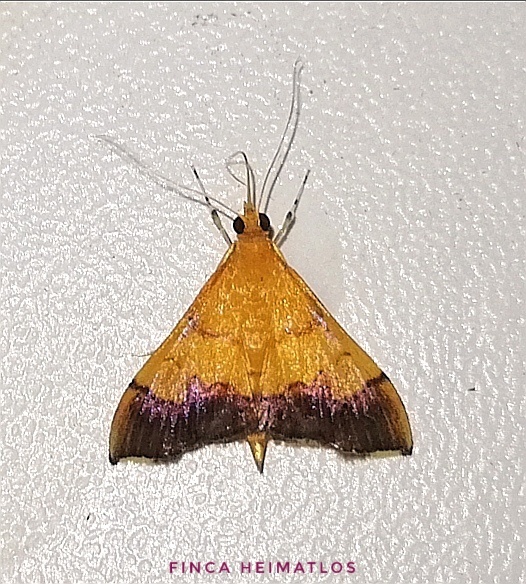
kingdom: Animalia
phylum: Arthropoda
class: Insecta
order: Lepidoptera
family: Crambidae
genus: Pyrausta
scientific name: Pyrausta bicoloralis
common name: Bicolored pyrausta moth
